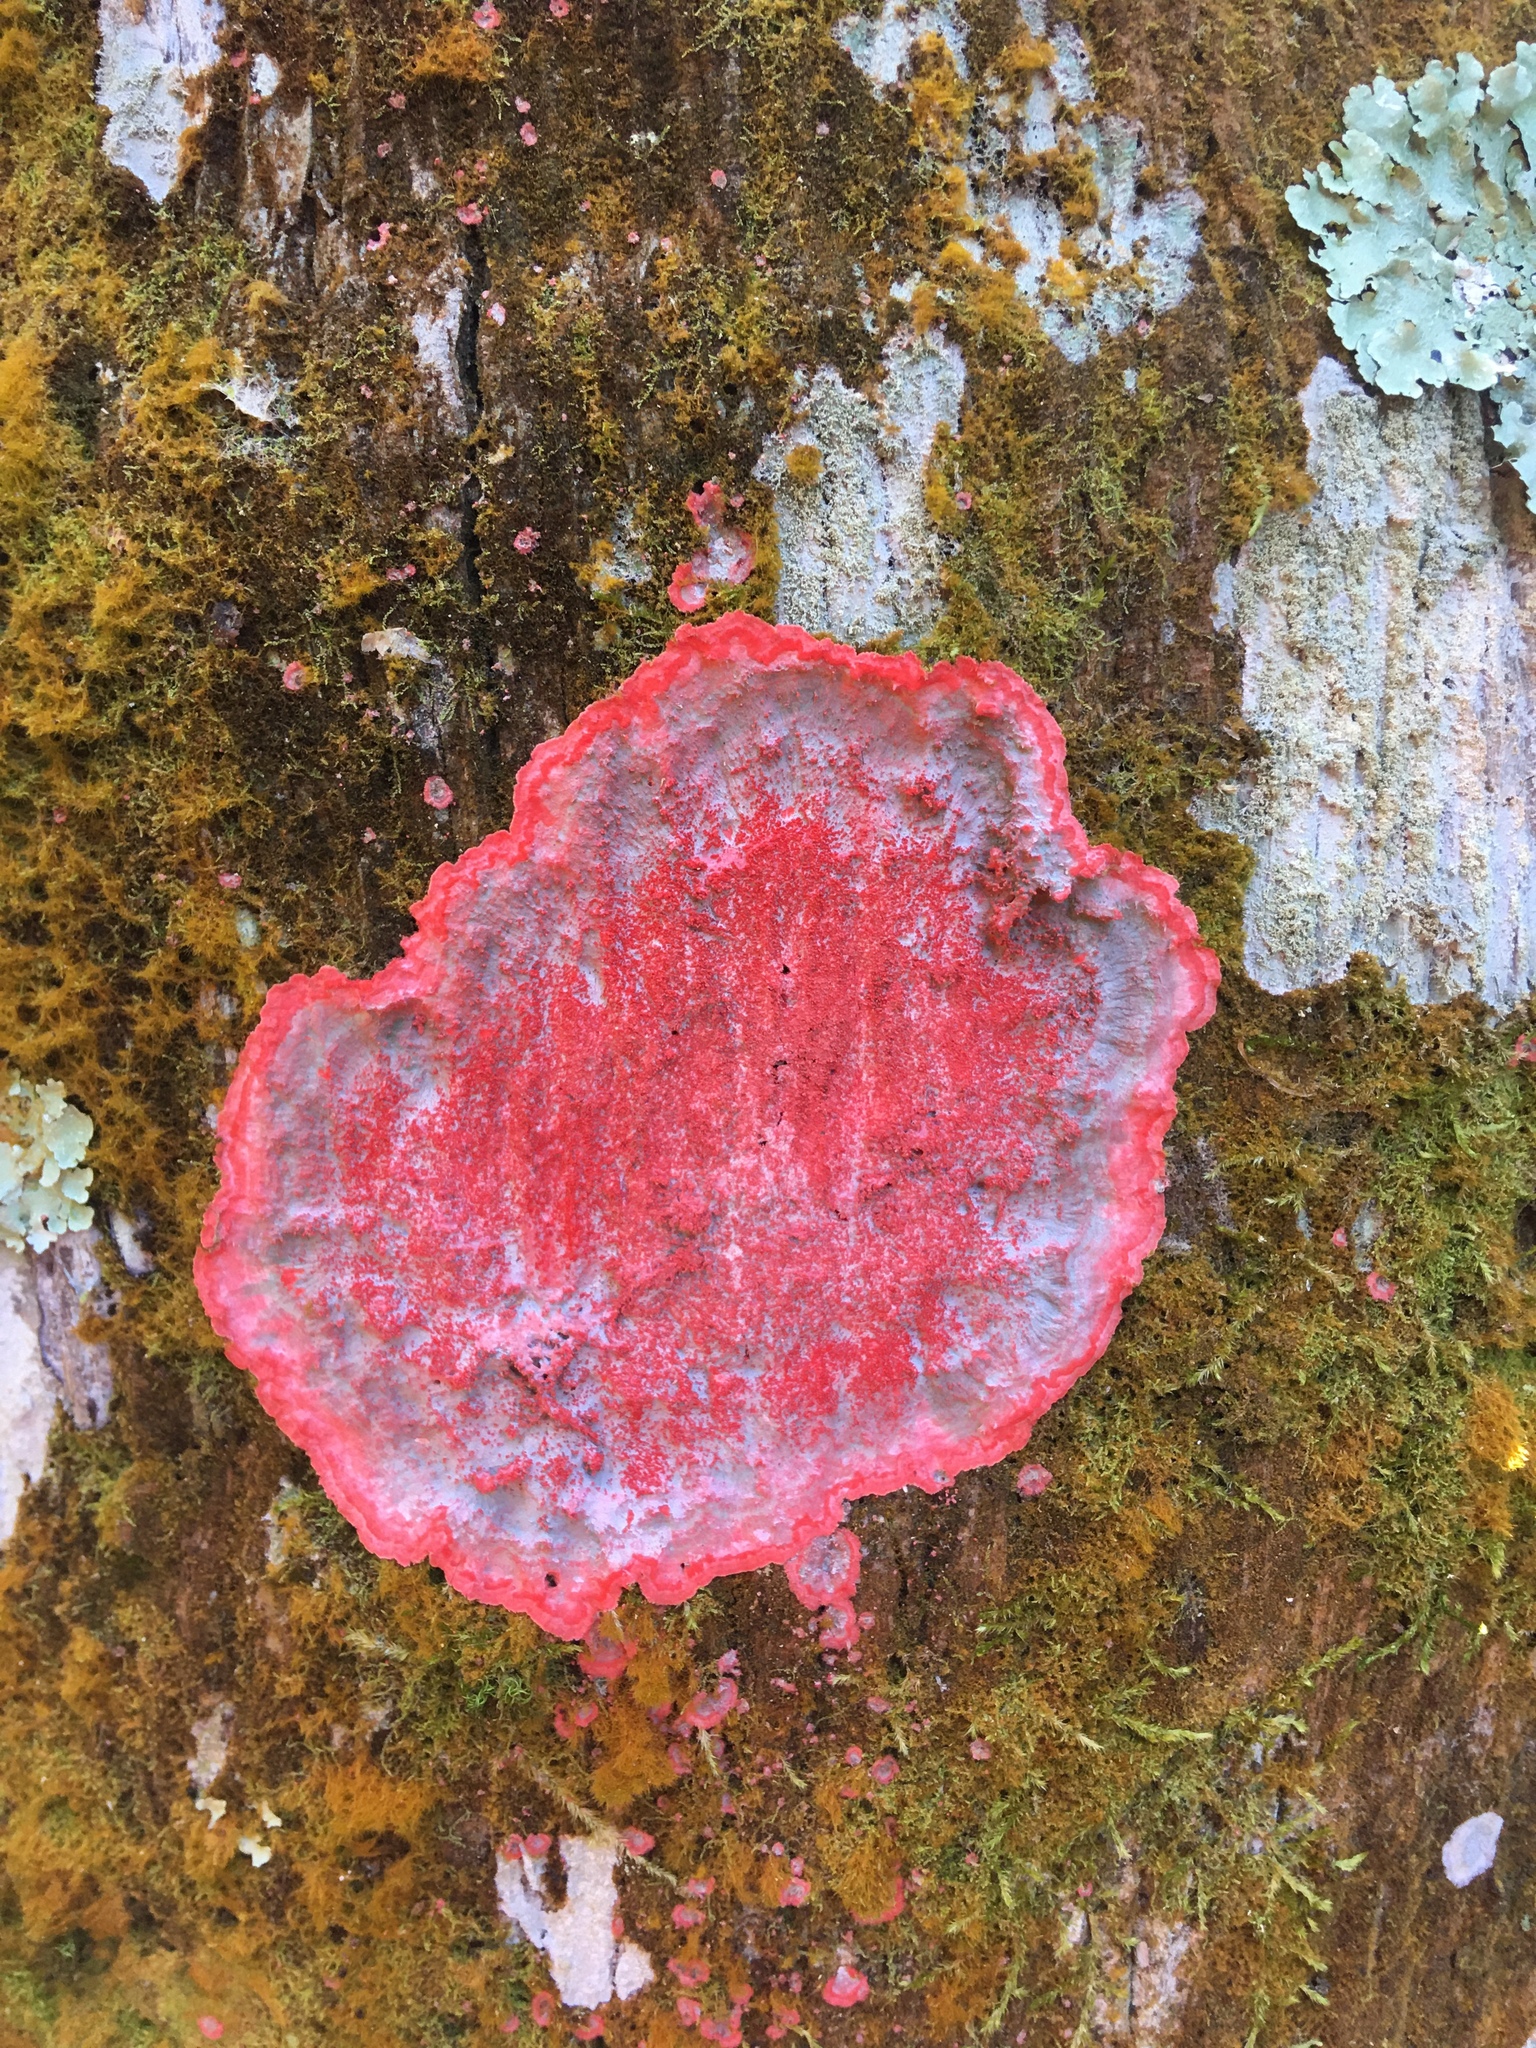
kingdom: Fungi
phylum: Ascomycota
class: Arthoniomycetes
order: Arthoniales
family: Arthoniaceae
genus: Herpothallon
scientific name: Herpothallon rubrocinctum
